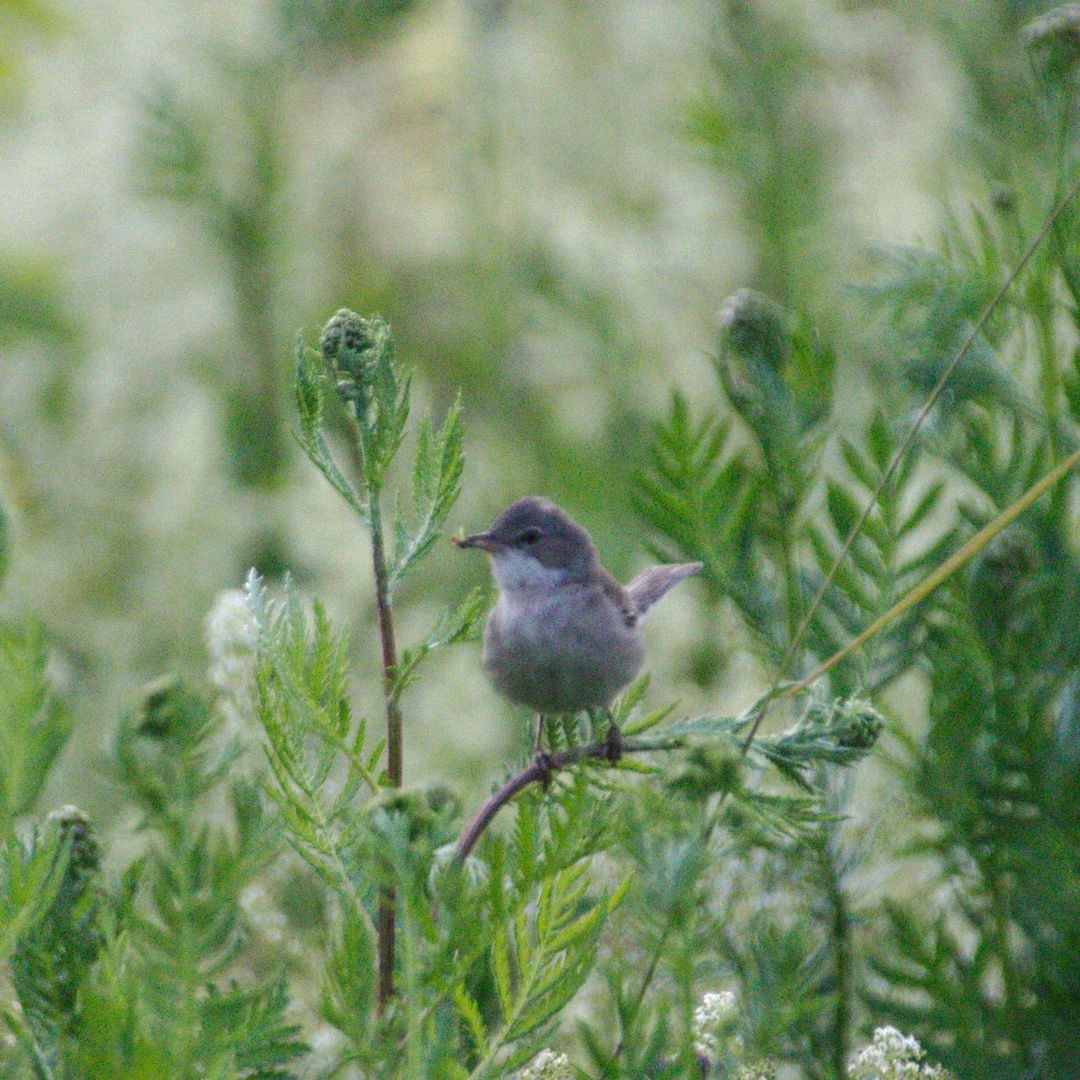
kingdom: Animalia
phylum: Chordata
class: Aves
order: Passeriformes
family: Sylviidae
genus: Sylvia
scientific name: Sylvia communis
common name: Common whitethroat
